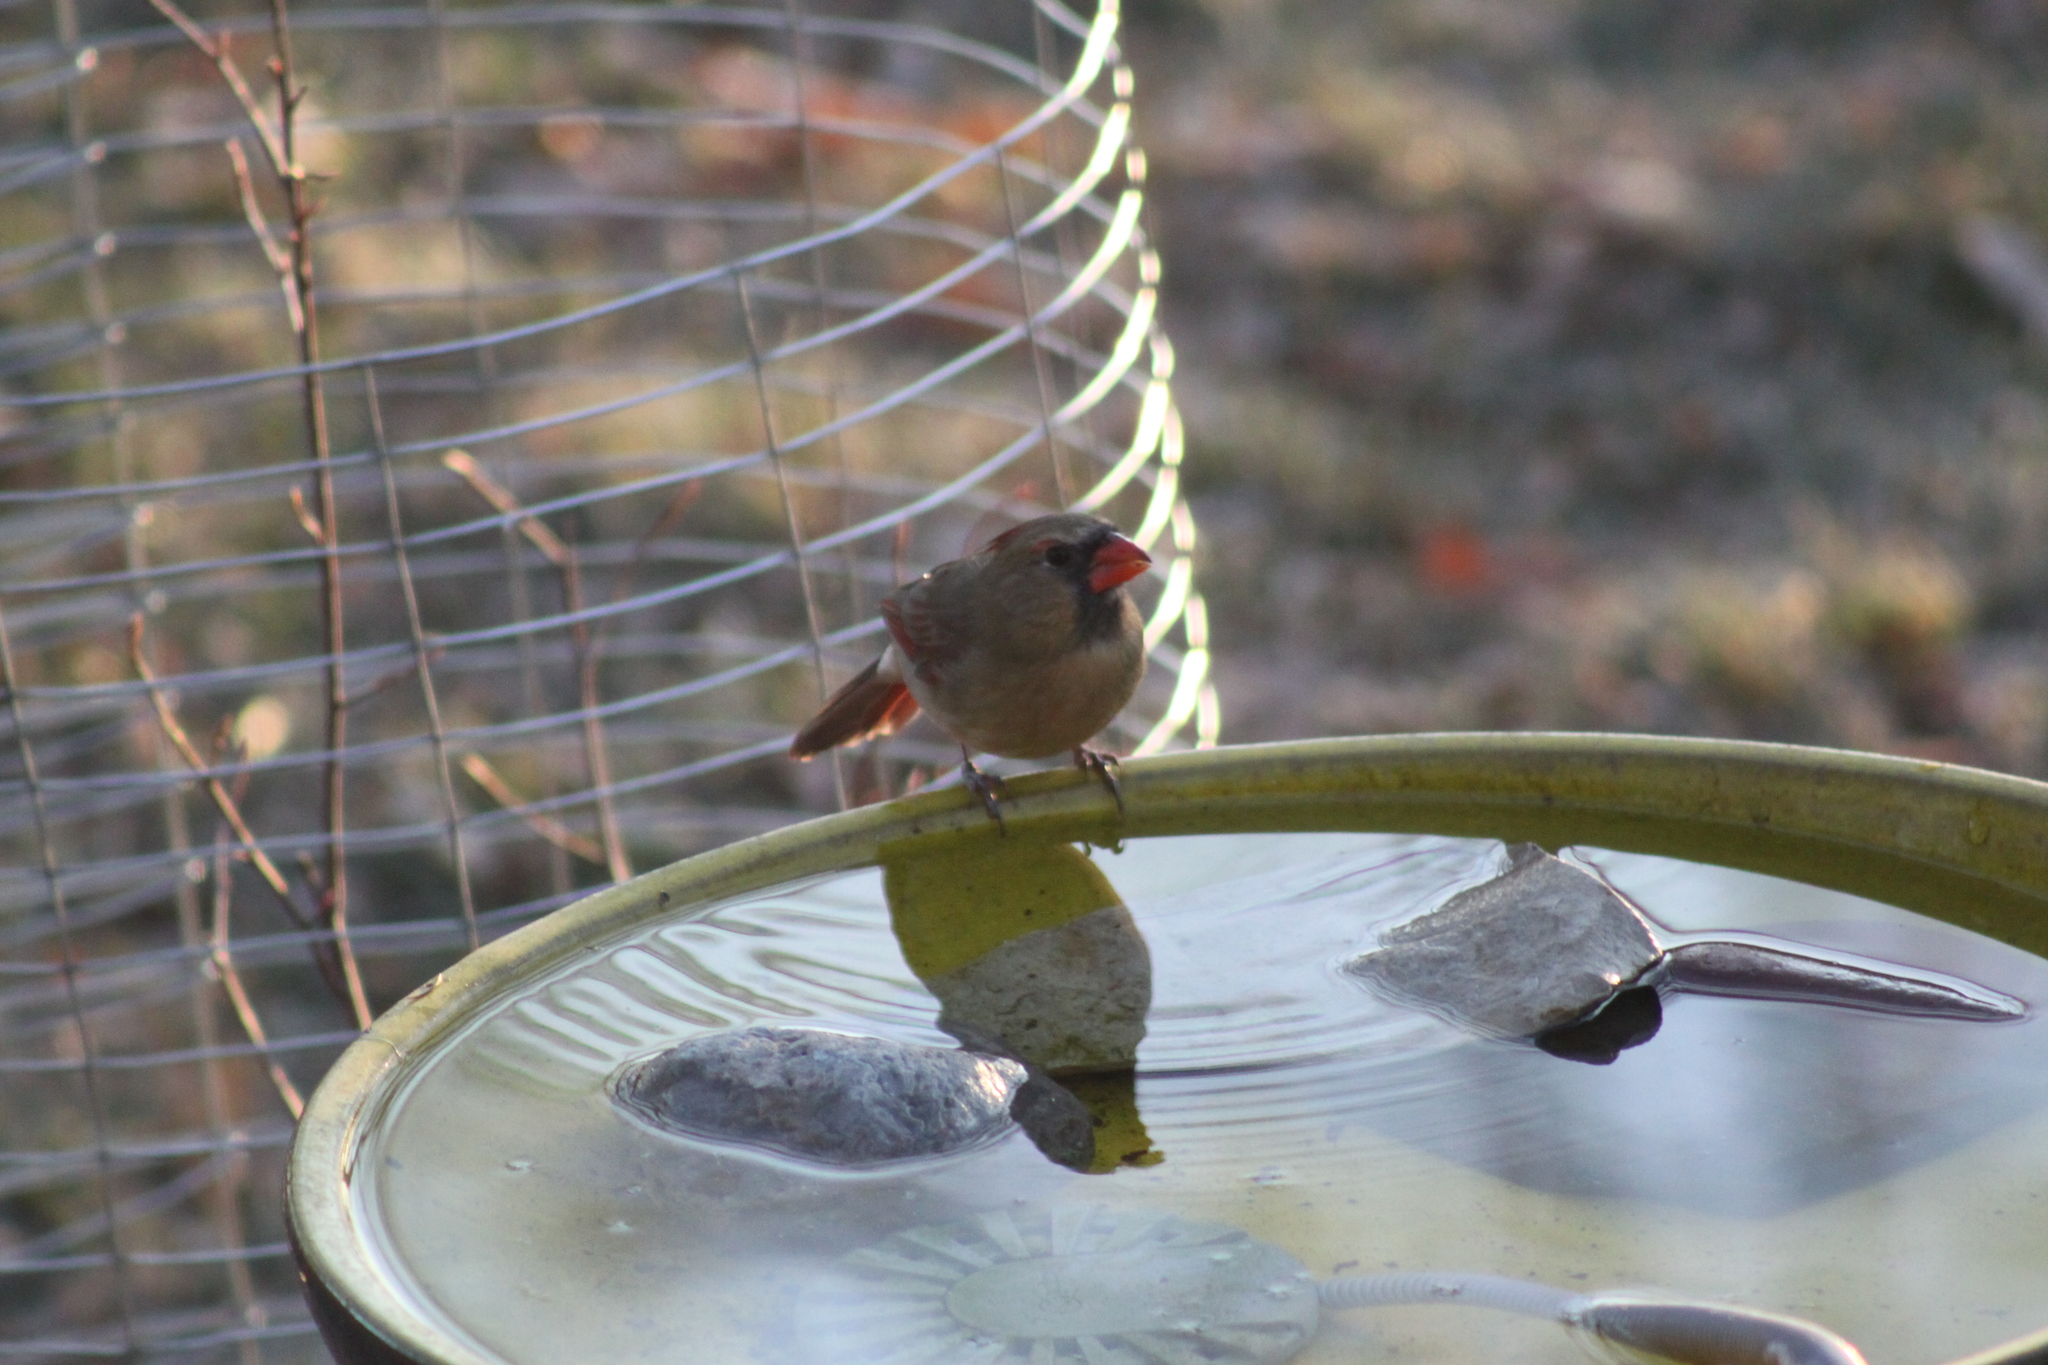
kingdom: Animalia
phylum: Chordata
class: Aves
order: Passeriformes
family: Cardinalidae
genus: Cardinalis
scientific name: Cardinalis cardinalis
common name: Northern cardinal
